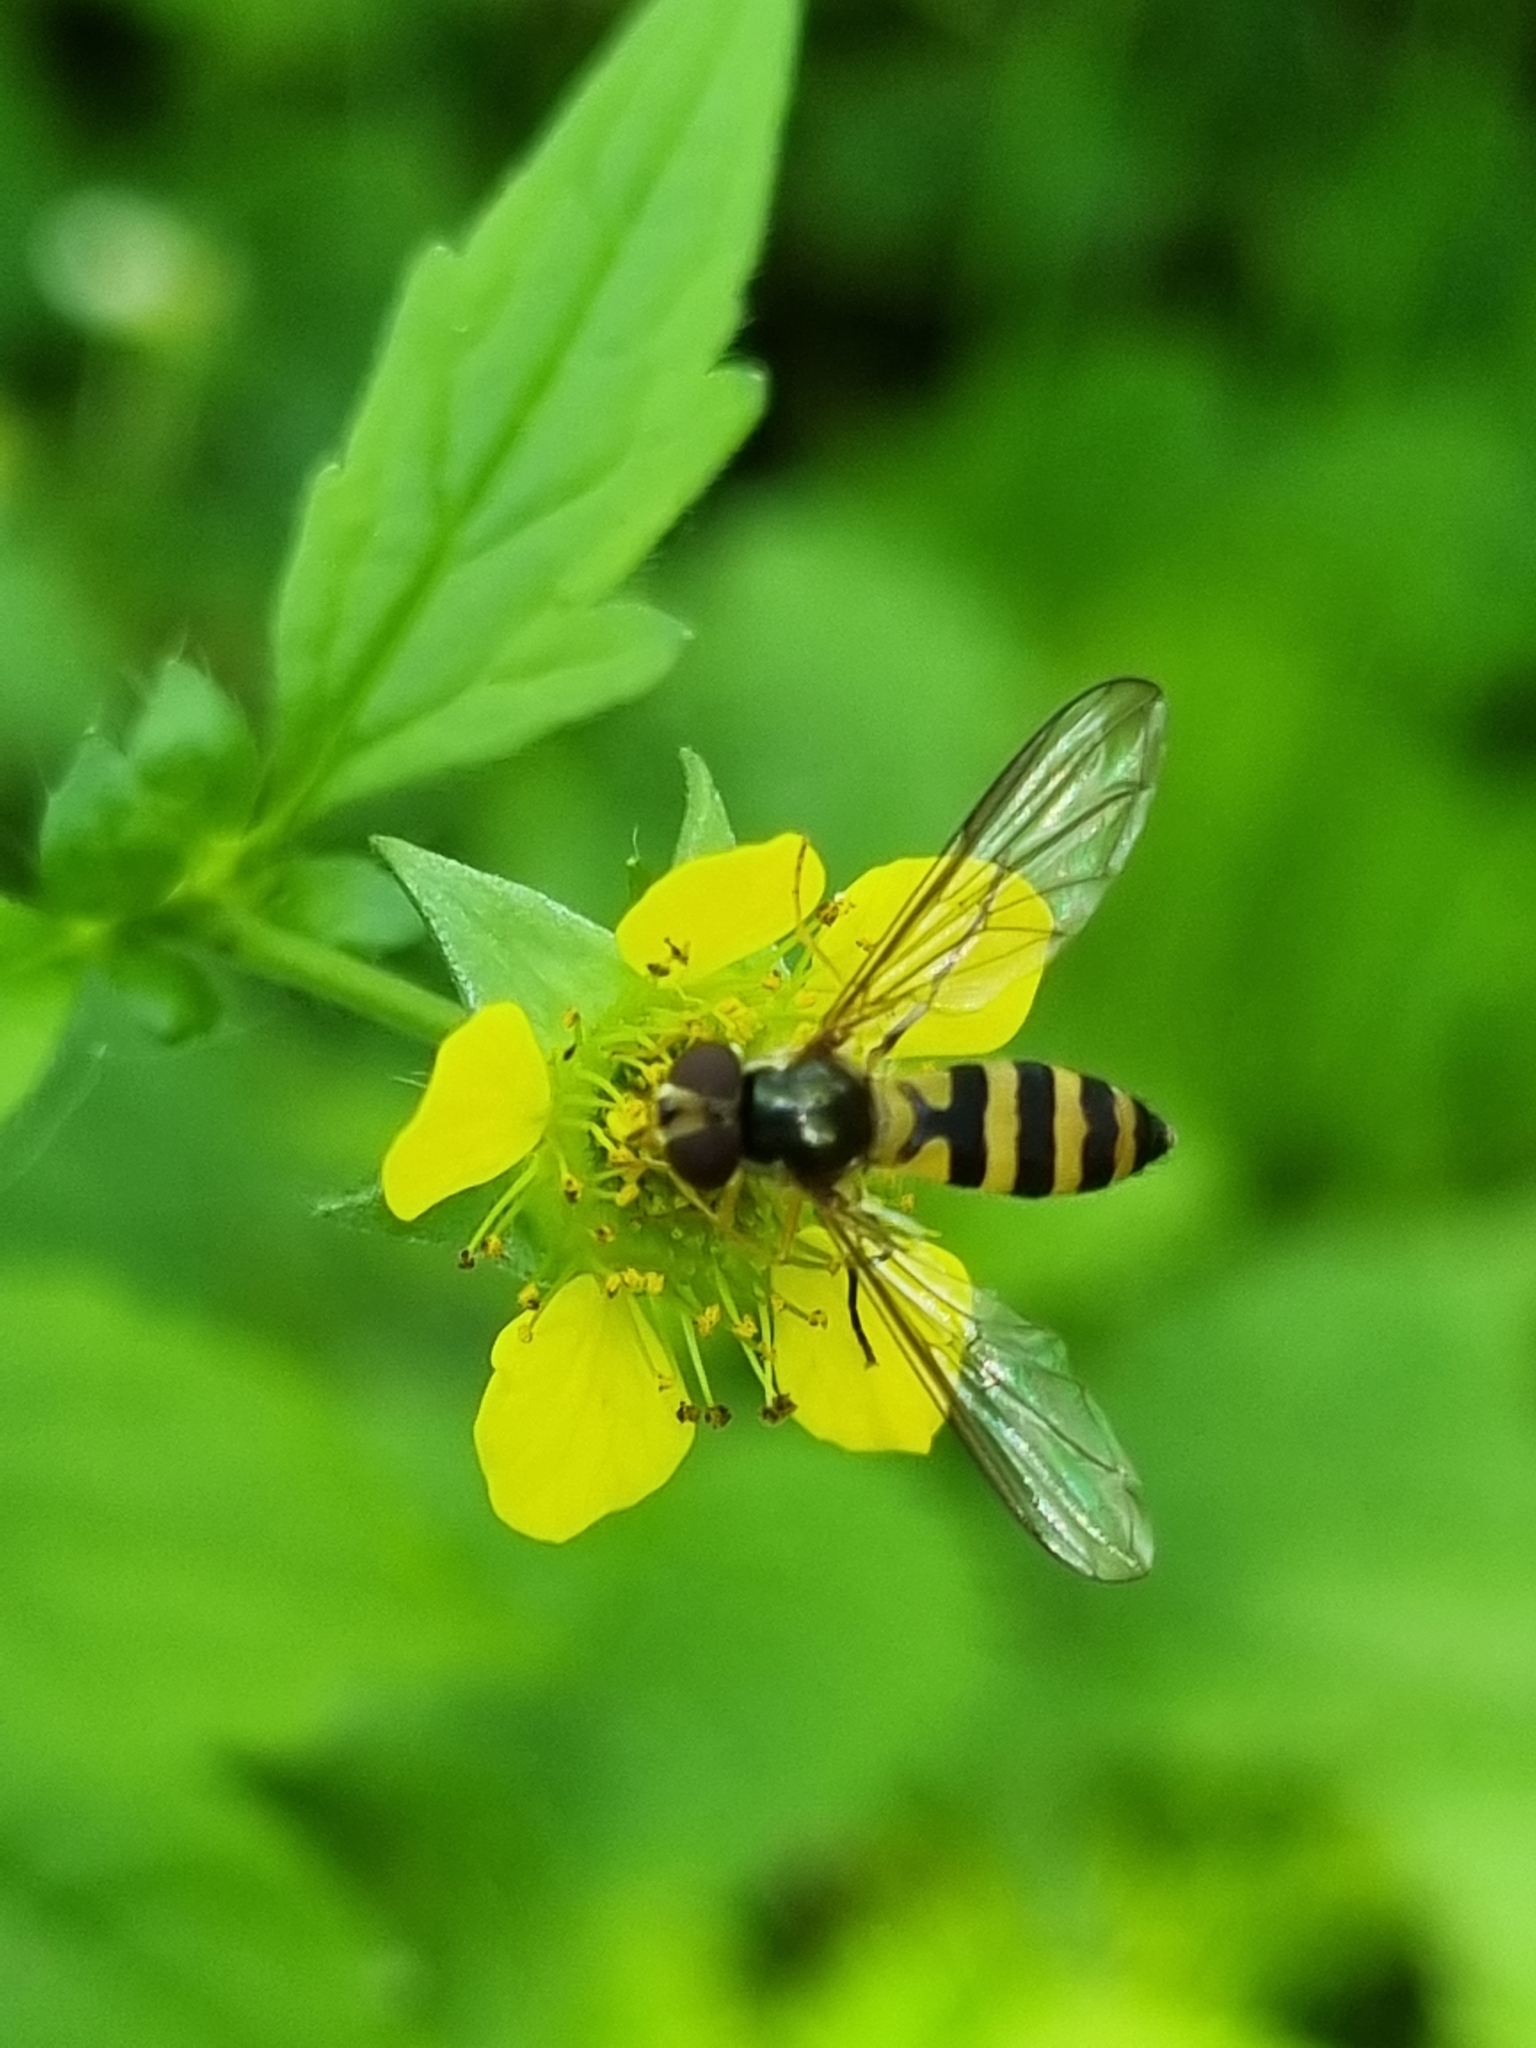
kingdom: Animalia
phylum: Arthropoda
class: Insecta
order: Diptera
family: Syrphidae
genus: Meliscaeva
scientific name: Meliscaeva cinctella
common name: American thintail fly
